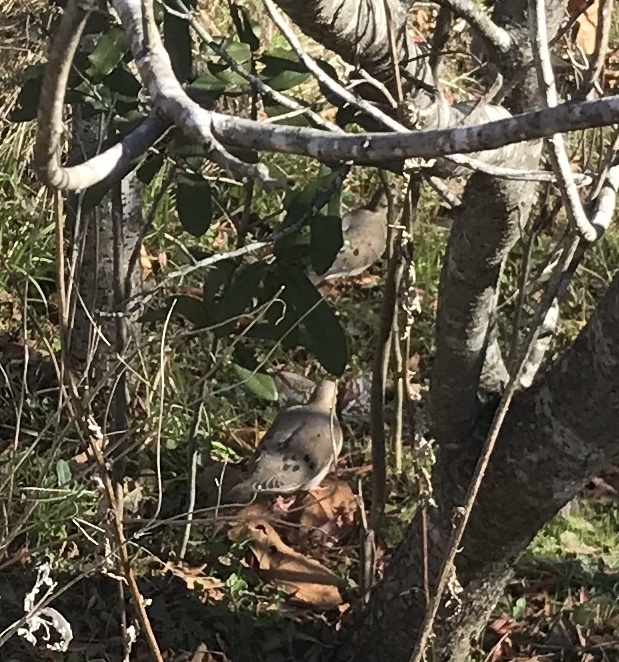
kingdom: Animalia
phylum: Chordata
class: Aves
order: Columbiformes
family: Columbidae
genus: Zenaida
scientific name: Zenaida macroura
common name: Mourning dove
